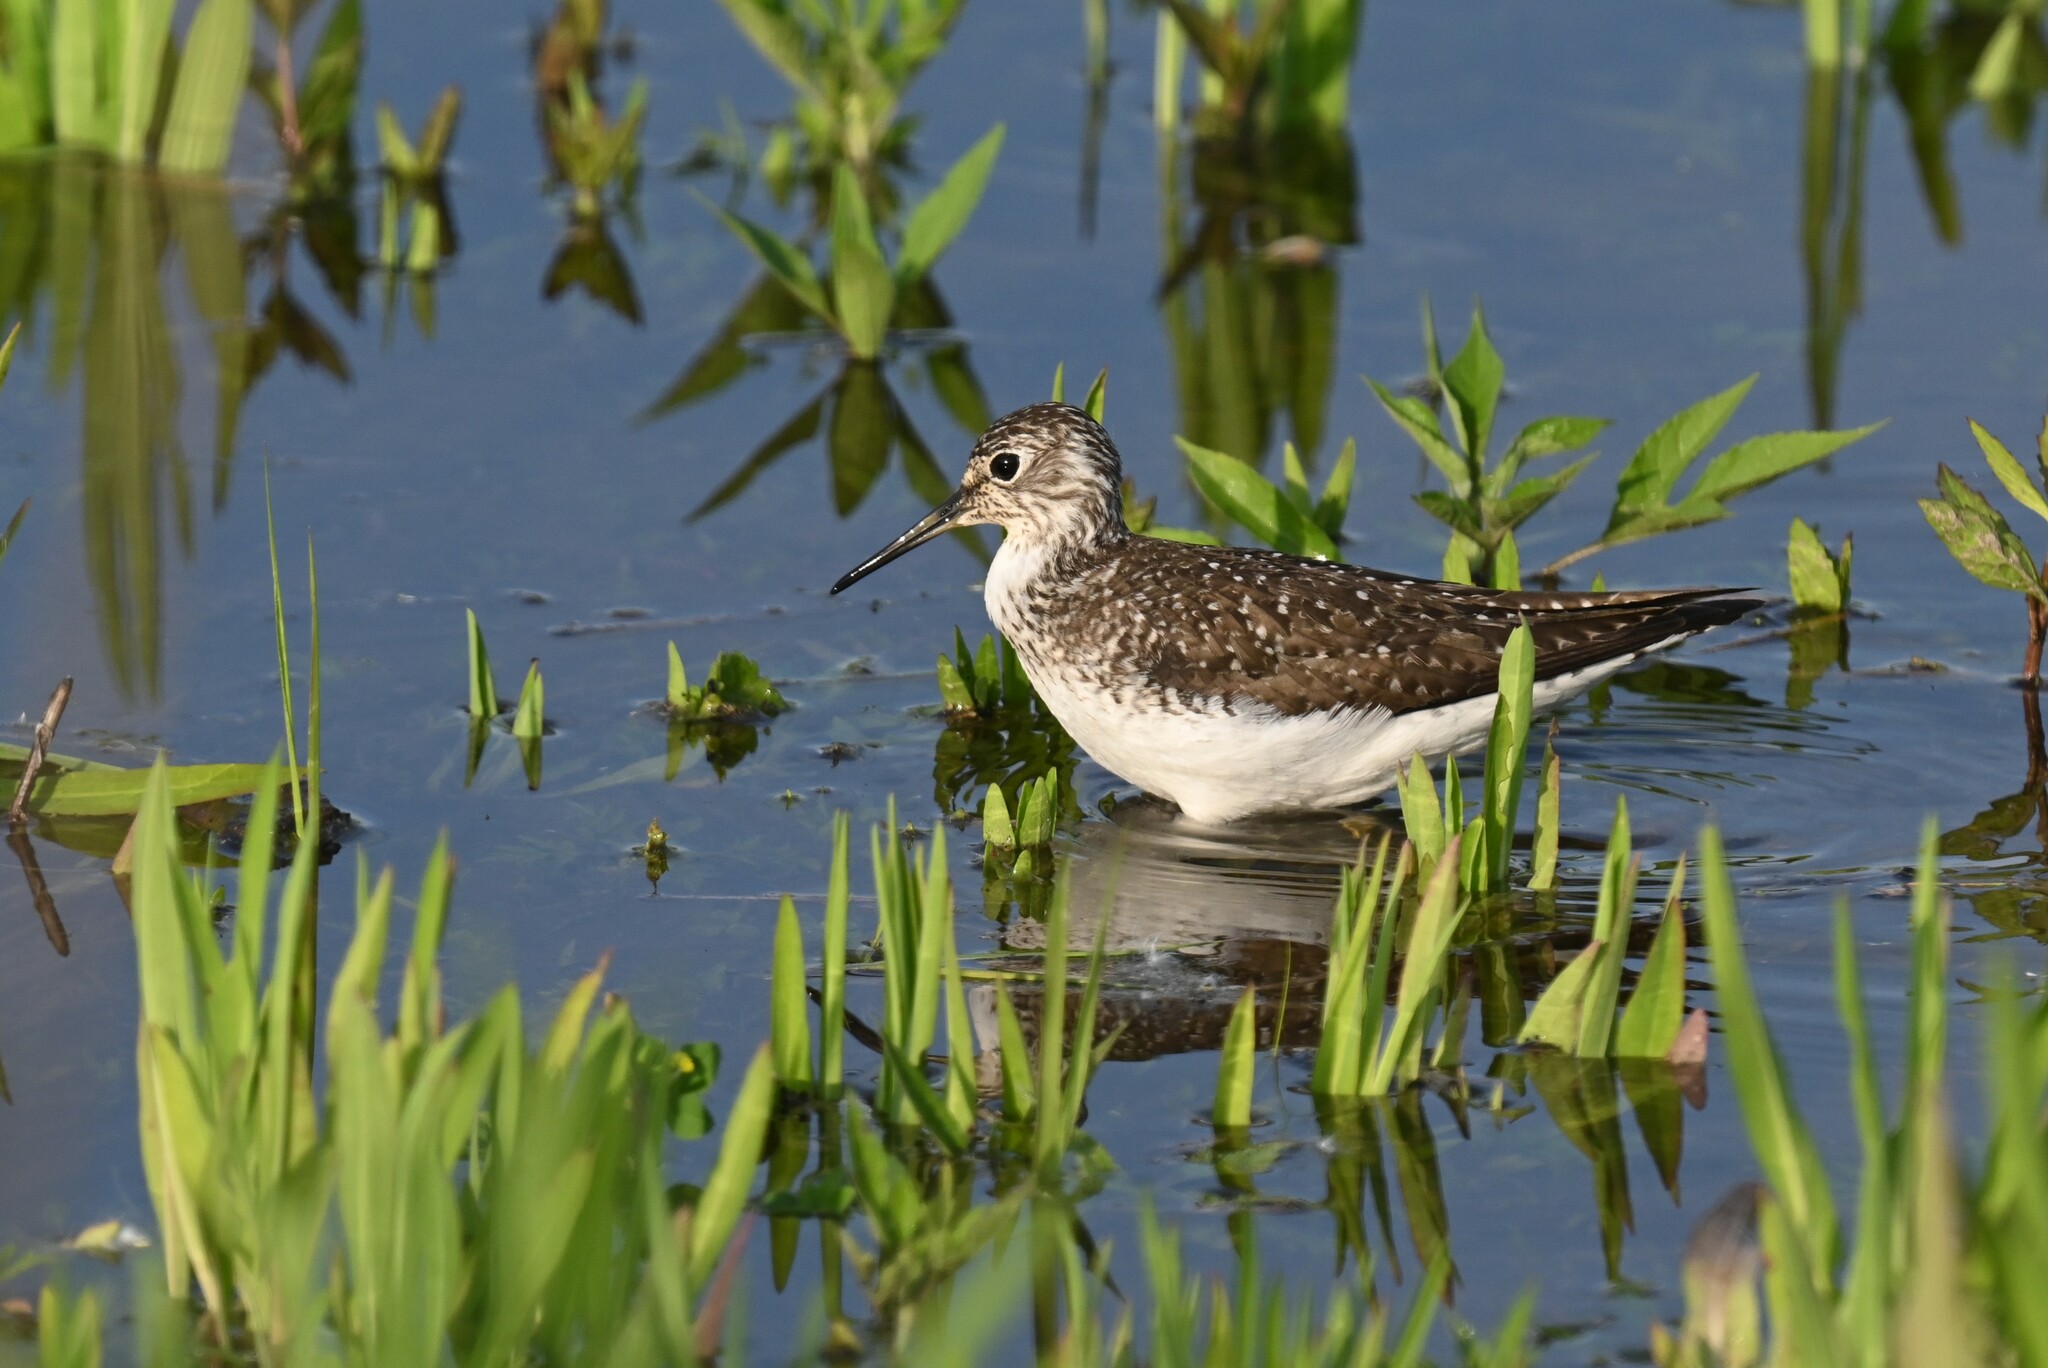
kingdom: Animalia
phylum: Chordata
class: Aves
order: Charadriiformes
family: Scolopacidae
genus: Tringa
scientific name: Tringa solitaria
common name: Solitary sandpiper
